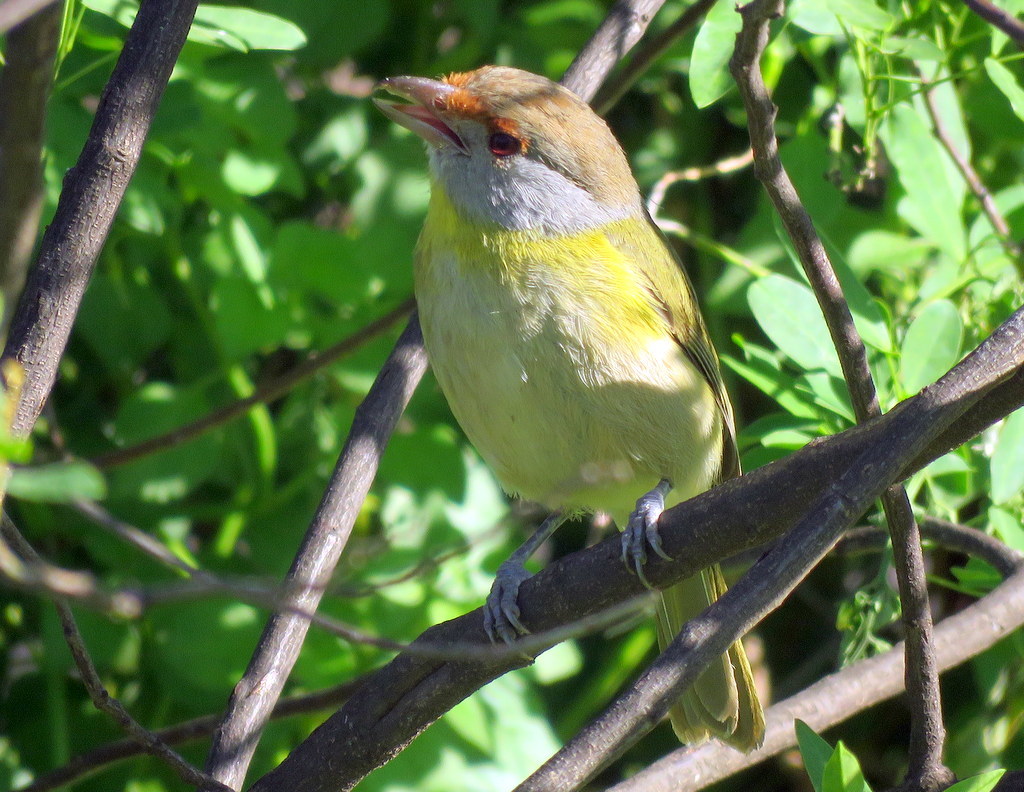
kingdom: Animalia
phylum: Chordata
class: Aves
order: Passeriformes
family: Vireonidae
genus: Cyclarhis
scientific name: Cyclarhis gujanensis
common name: Rufous-browed peppershrike
